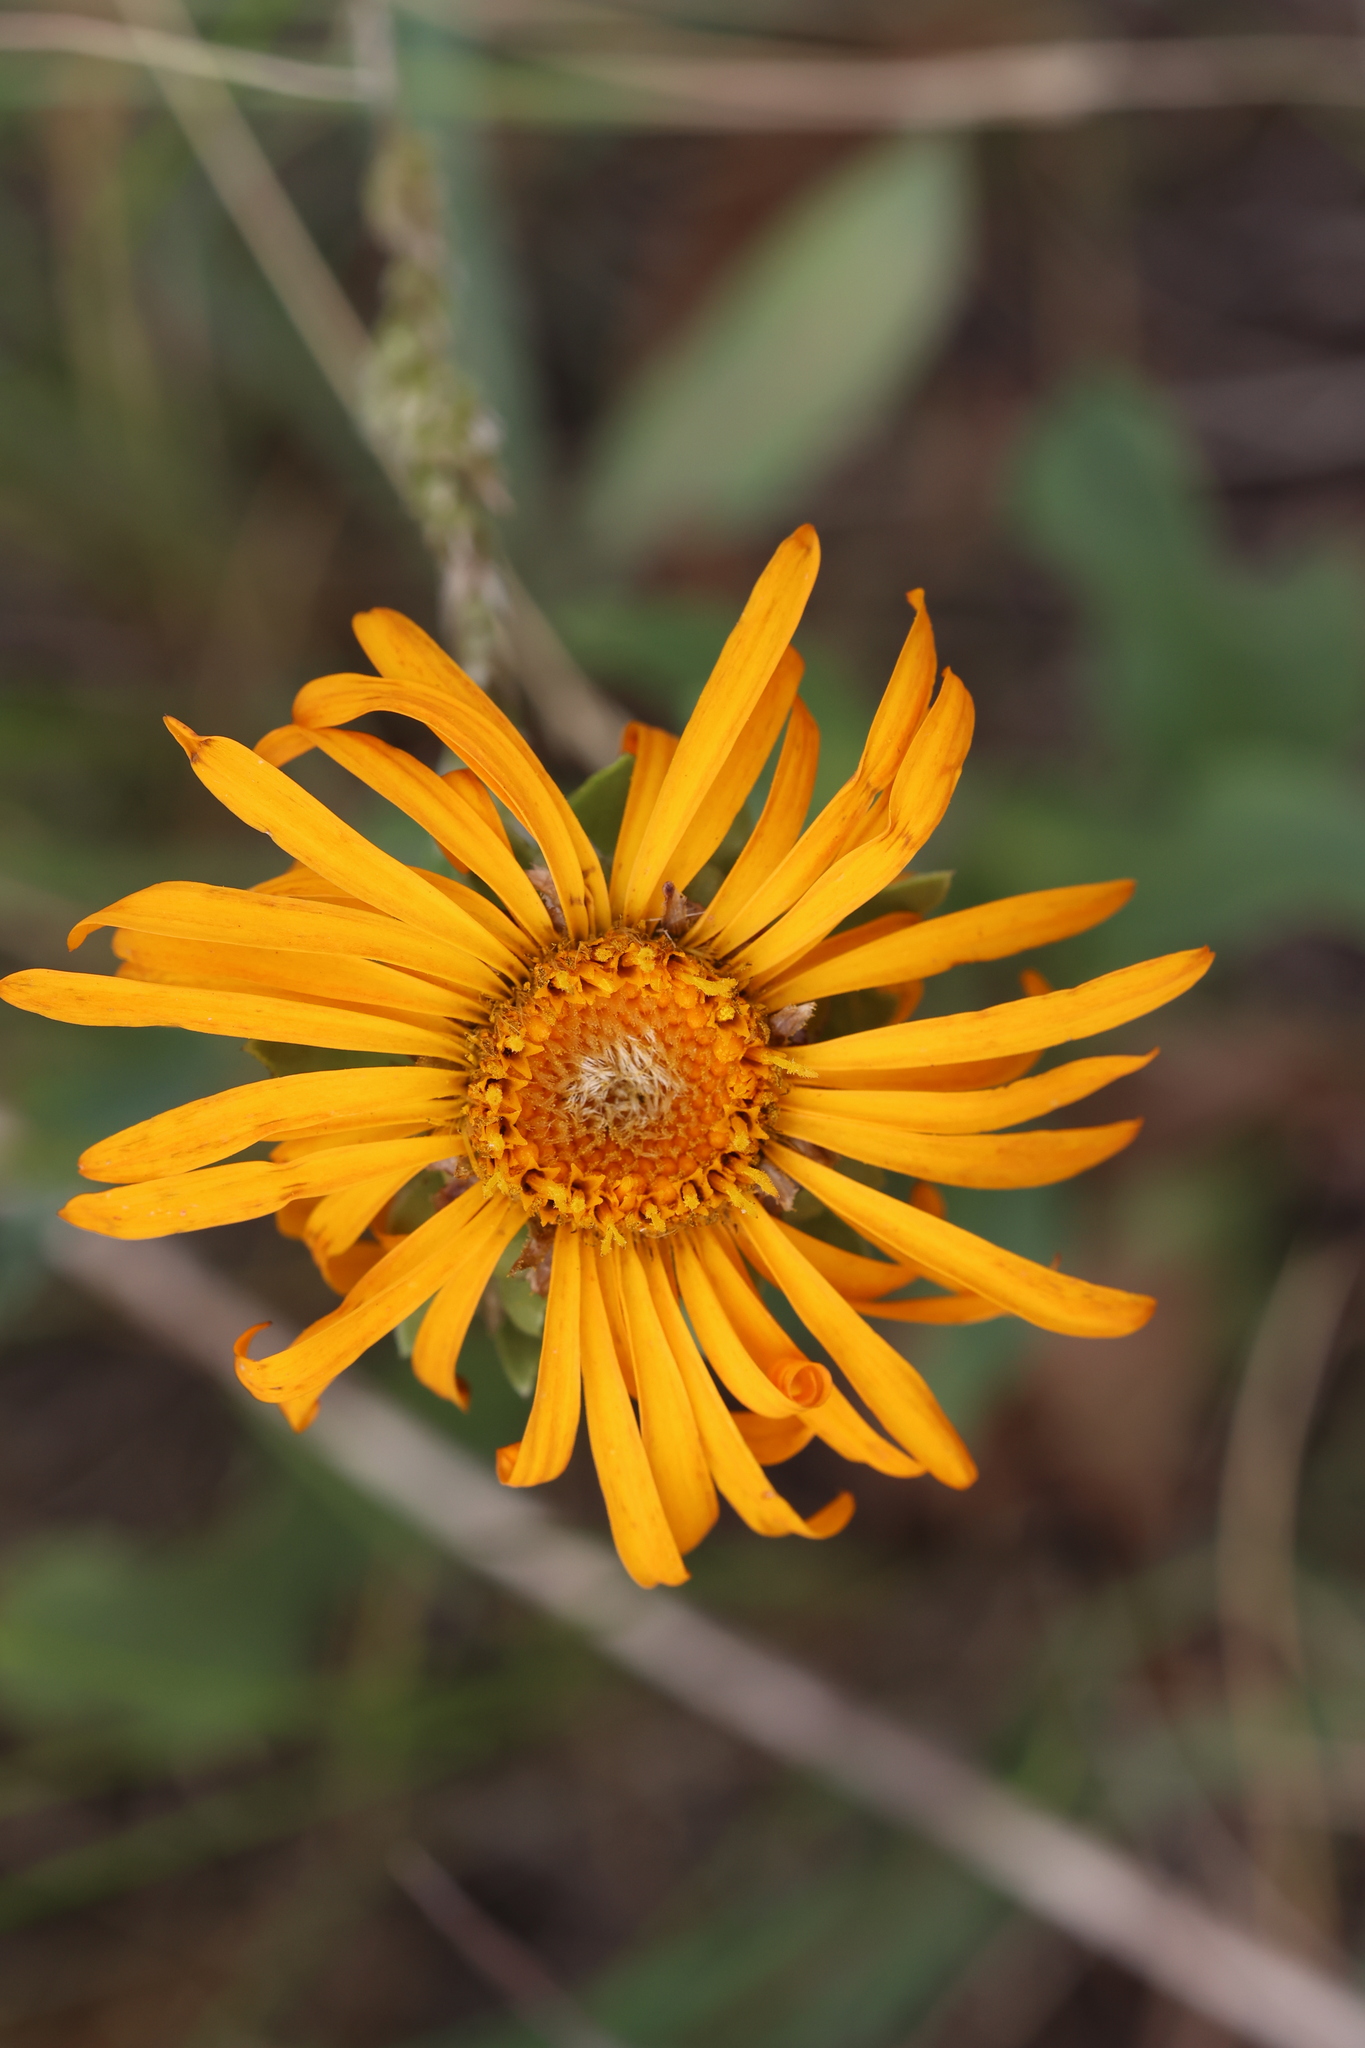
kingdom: Plantae
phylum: Tracheophyta
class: Magnoliopsida
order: Asterales
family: Asteraceae
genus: Pyrrocoma
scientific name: Pyrrocoma crocea
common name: Curly-head goldenweed
